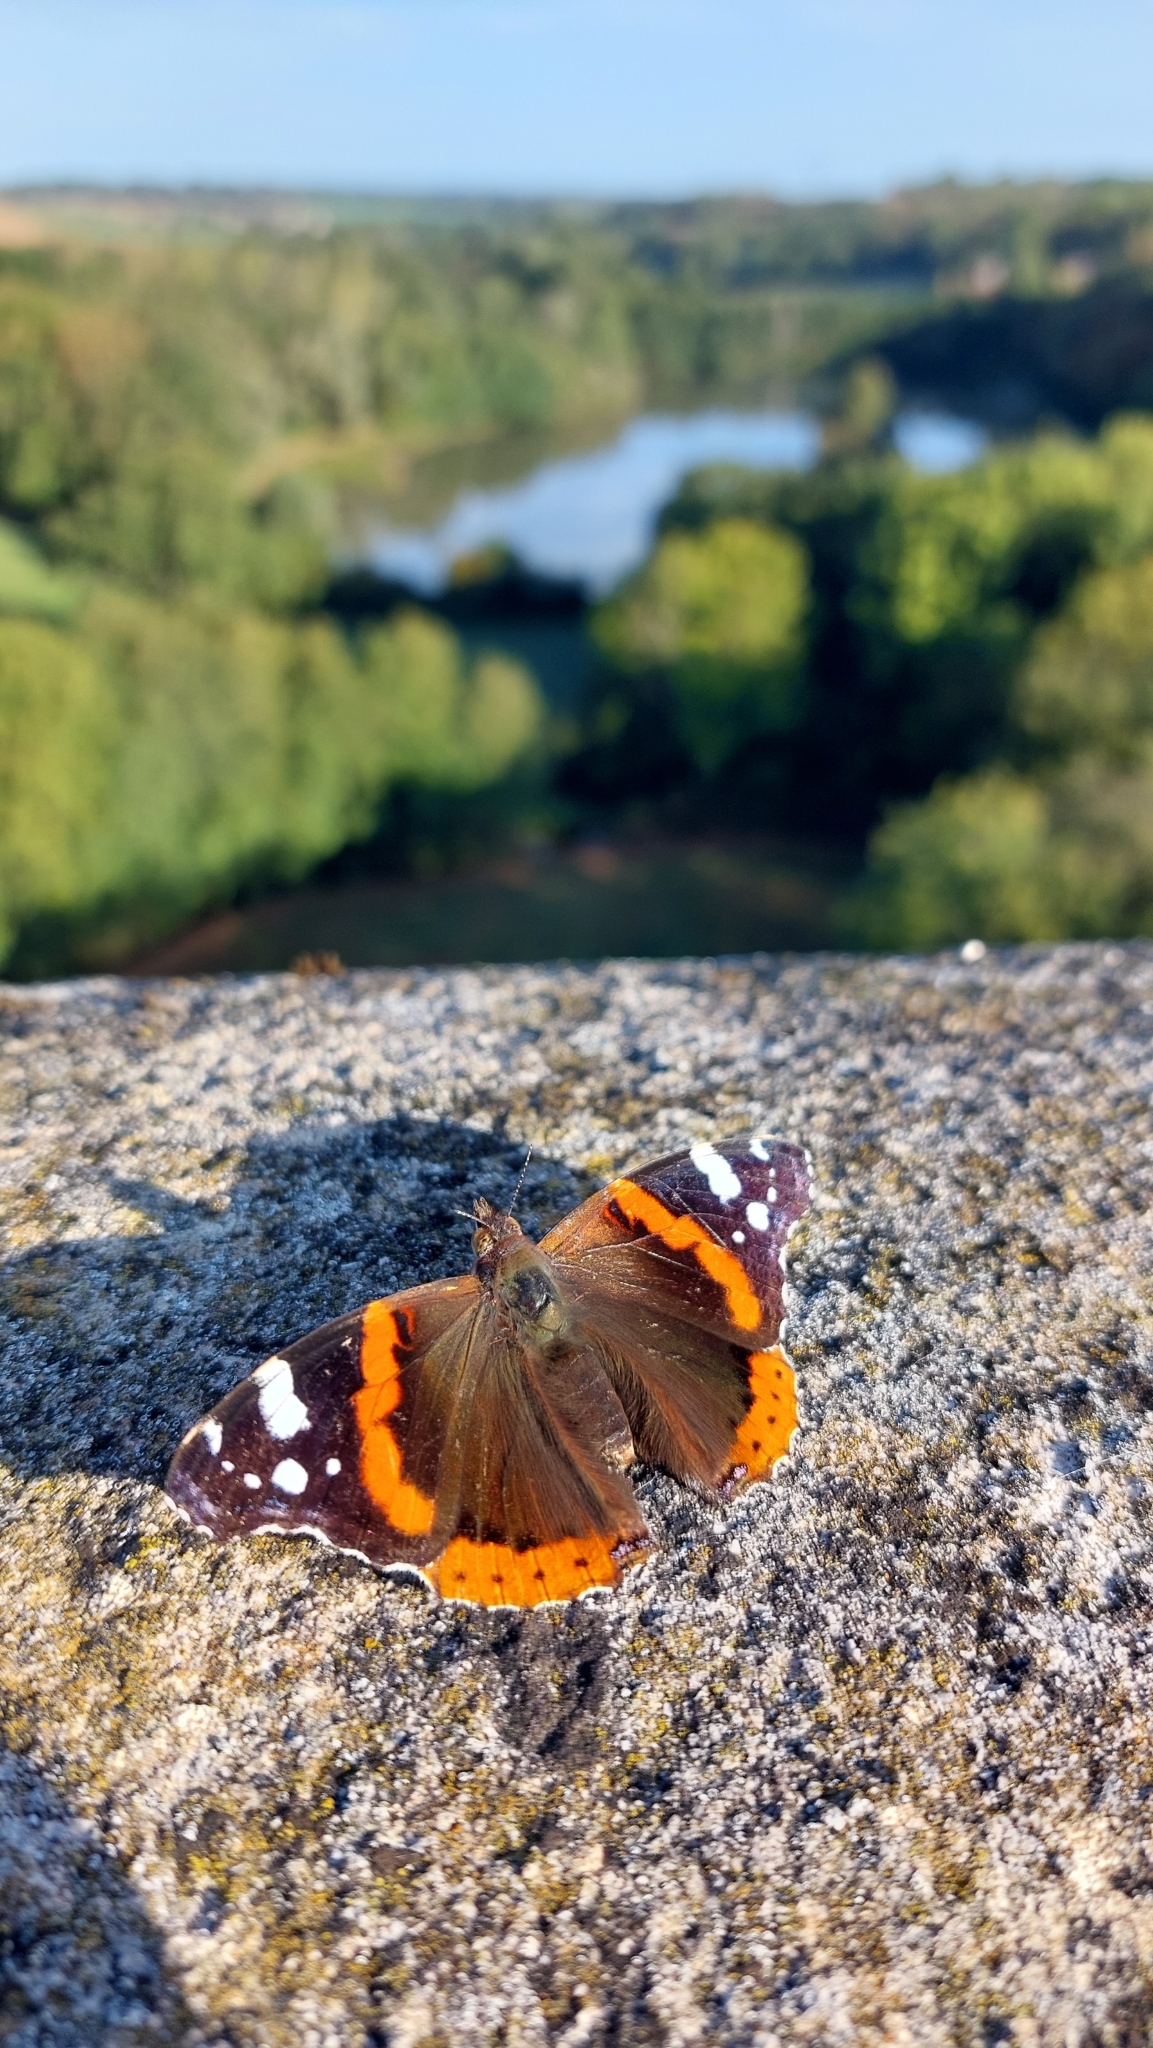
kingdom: Animalia
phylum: Arthropoda
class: Insecta
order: Lepidoptera
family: Nymphalidae
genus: Vanessa
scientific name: Vanessa atalanta
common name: Red admiral
